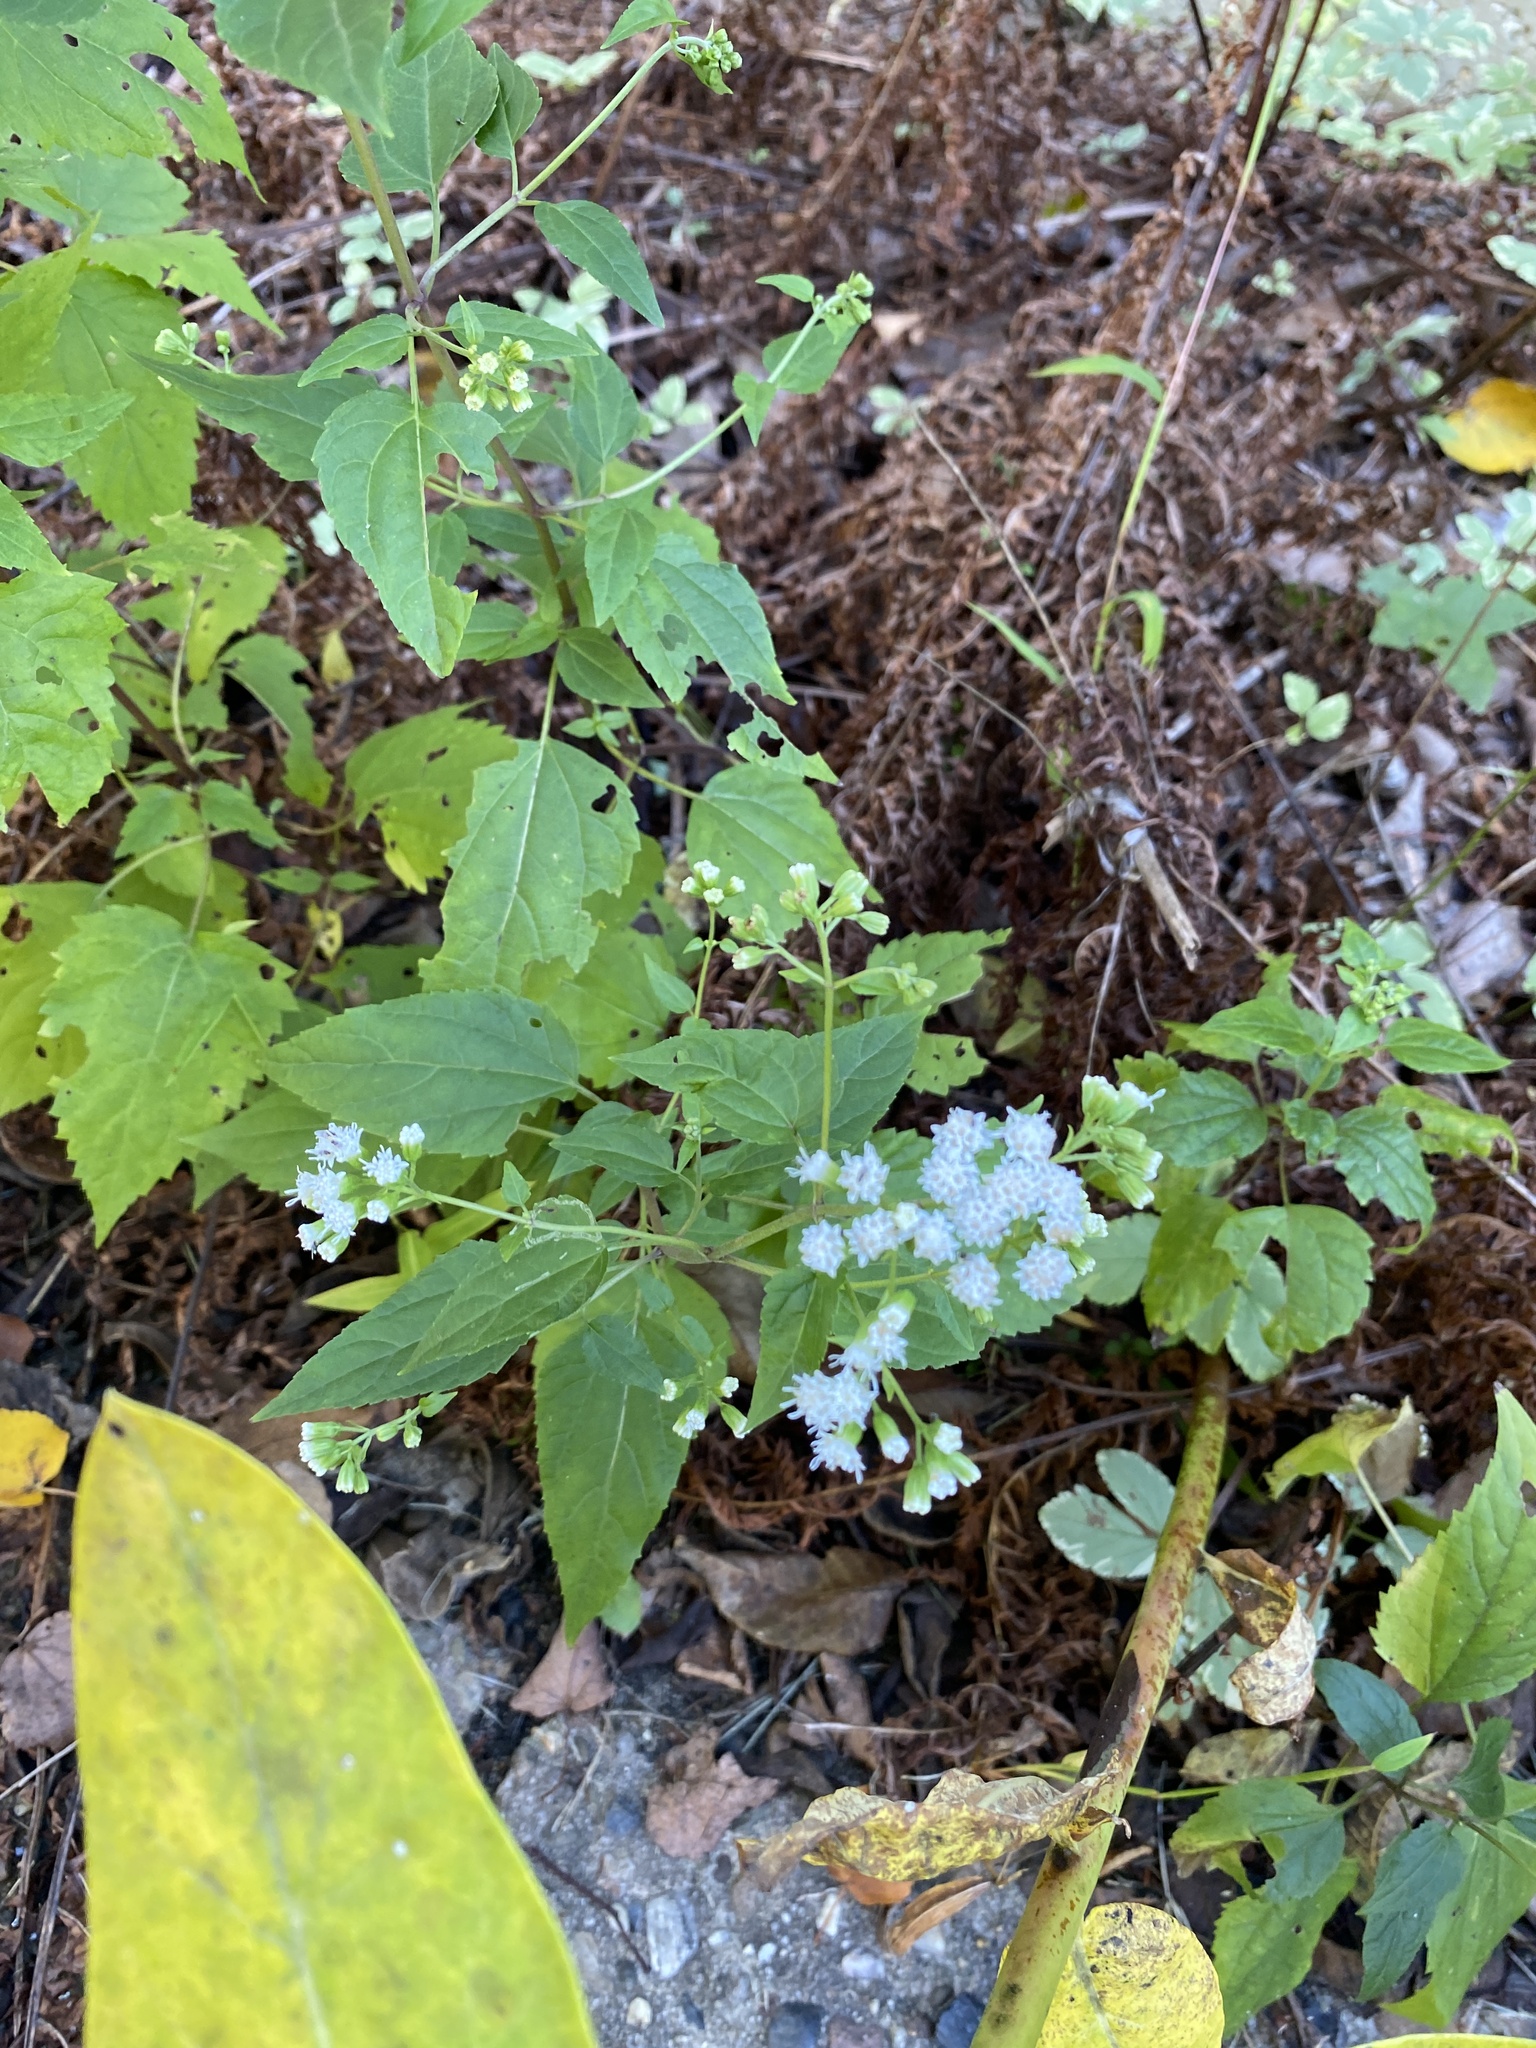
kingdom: Plantae
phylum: Tracheophyta
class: Magnoliopsida
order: Asterales
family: Asteraceae
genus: Ageratina
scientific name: Ageratina altissima
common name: White snakeroot
